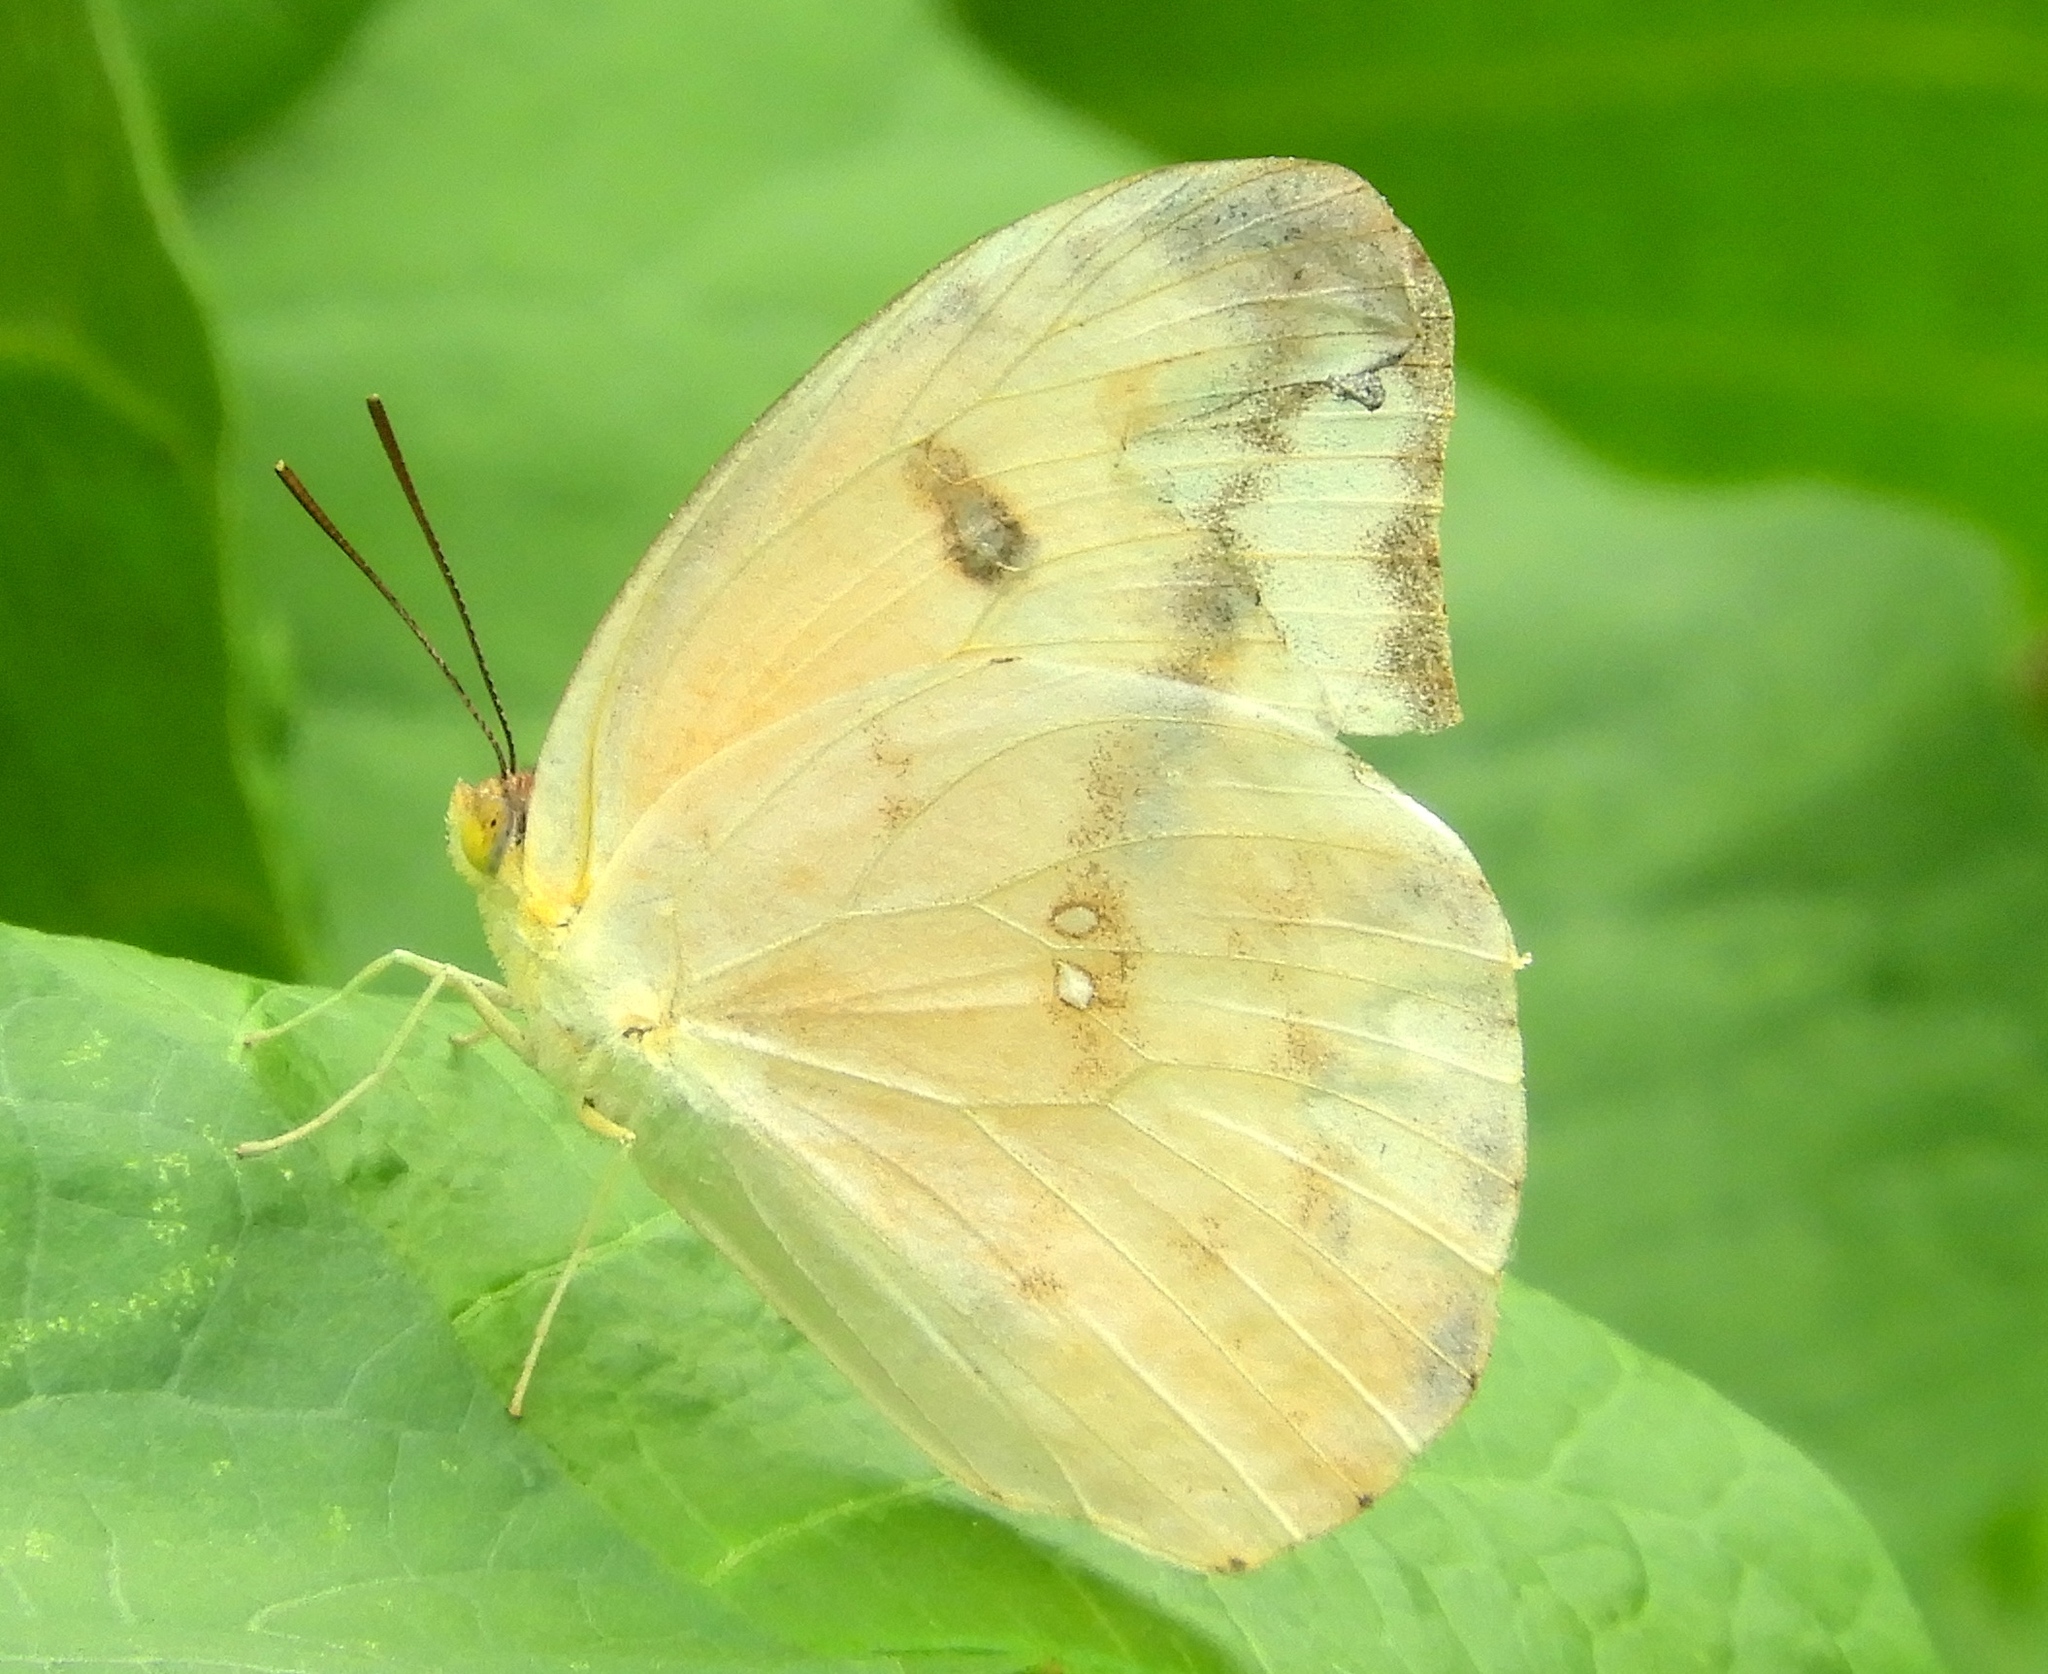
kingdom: Animalia
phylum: Arthropoda
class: Insecta
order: Lepidoptera
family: Pieridae
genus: Phoebis
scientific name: Phoebis agarithe
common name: Large orange sulphur
